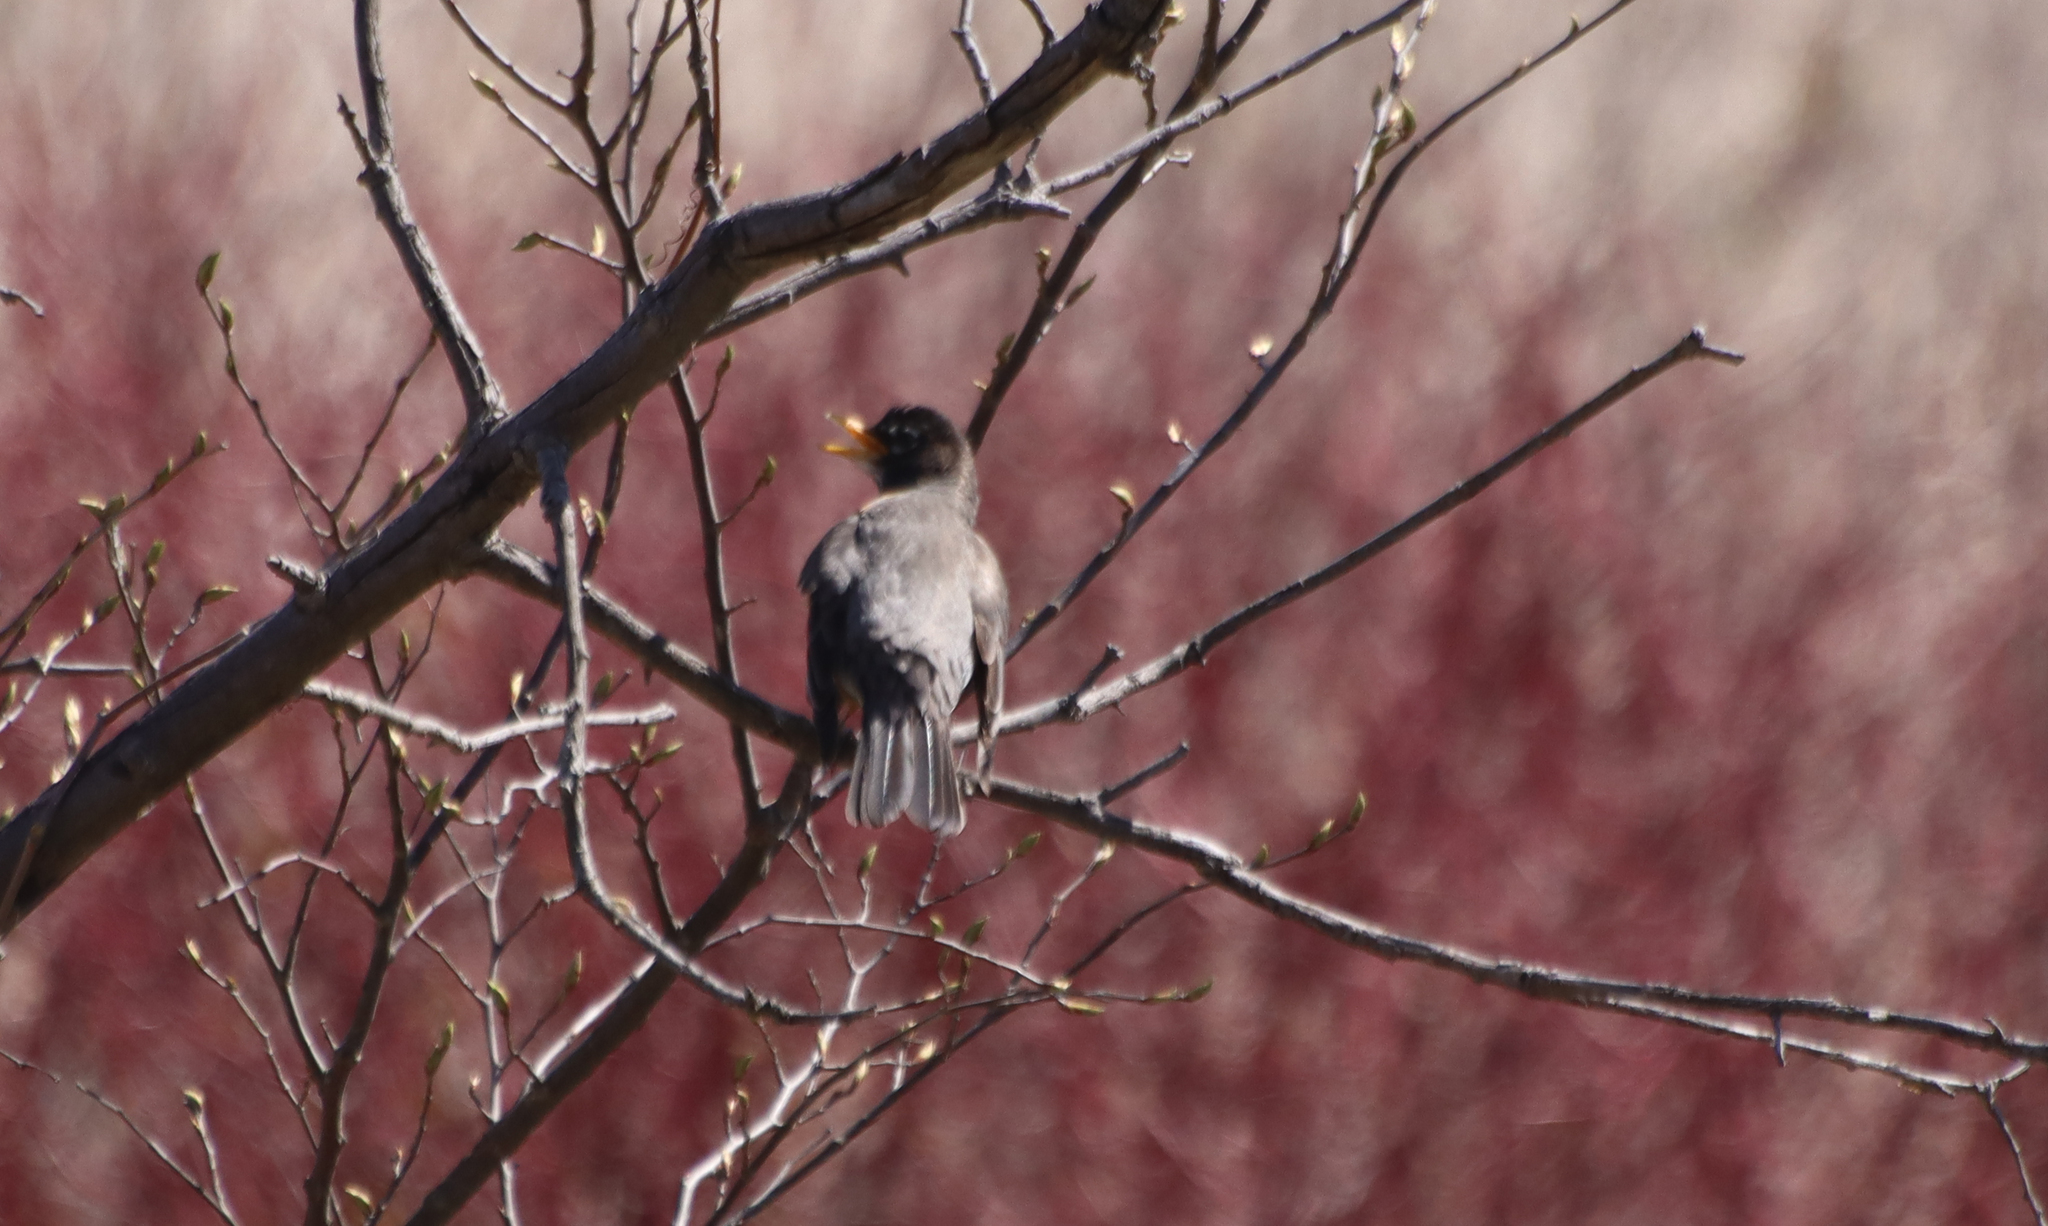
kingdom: Animalia
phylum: Chordata
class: Aves
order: Passeriformes
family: Turdidae
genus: Turdus
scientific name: Turdus migratorius
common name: American robin
